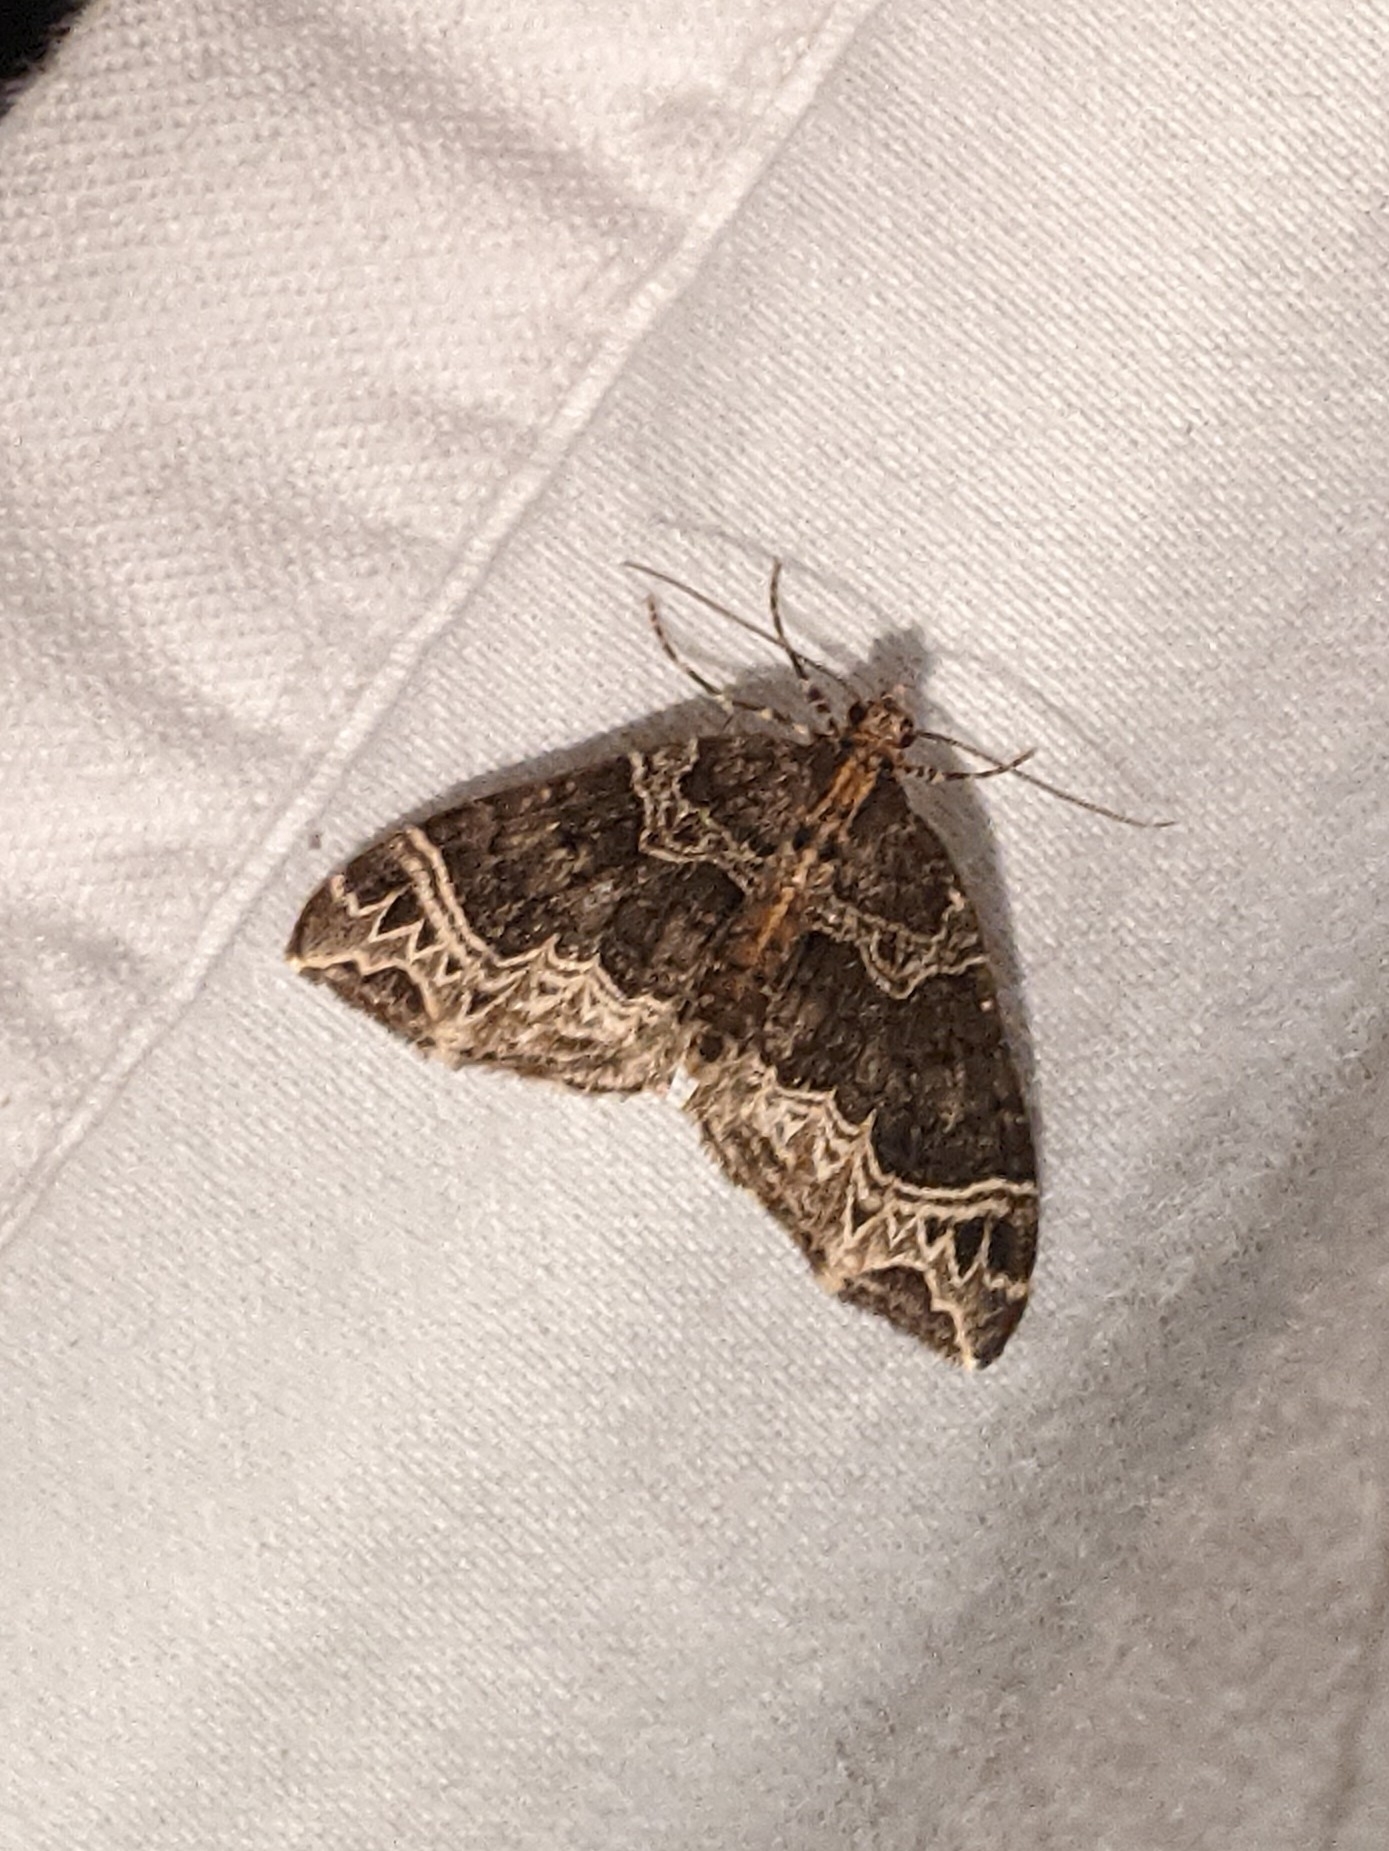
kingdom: Animalia
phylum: Arthropoda
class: Insecta
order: Lepidoptera
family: Geometridae
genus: Ecliptopera
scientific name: Ecliptopera silaceata
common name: Small phoenix
